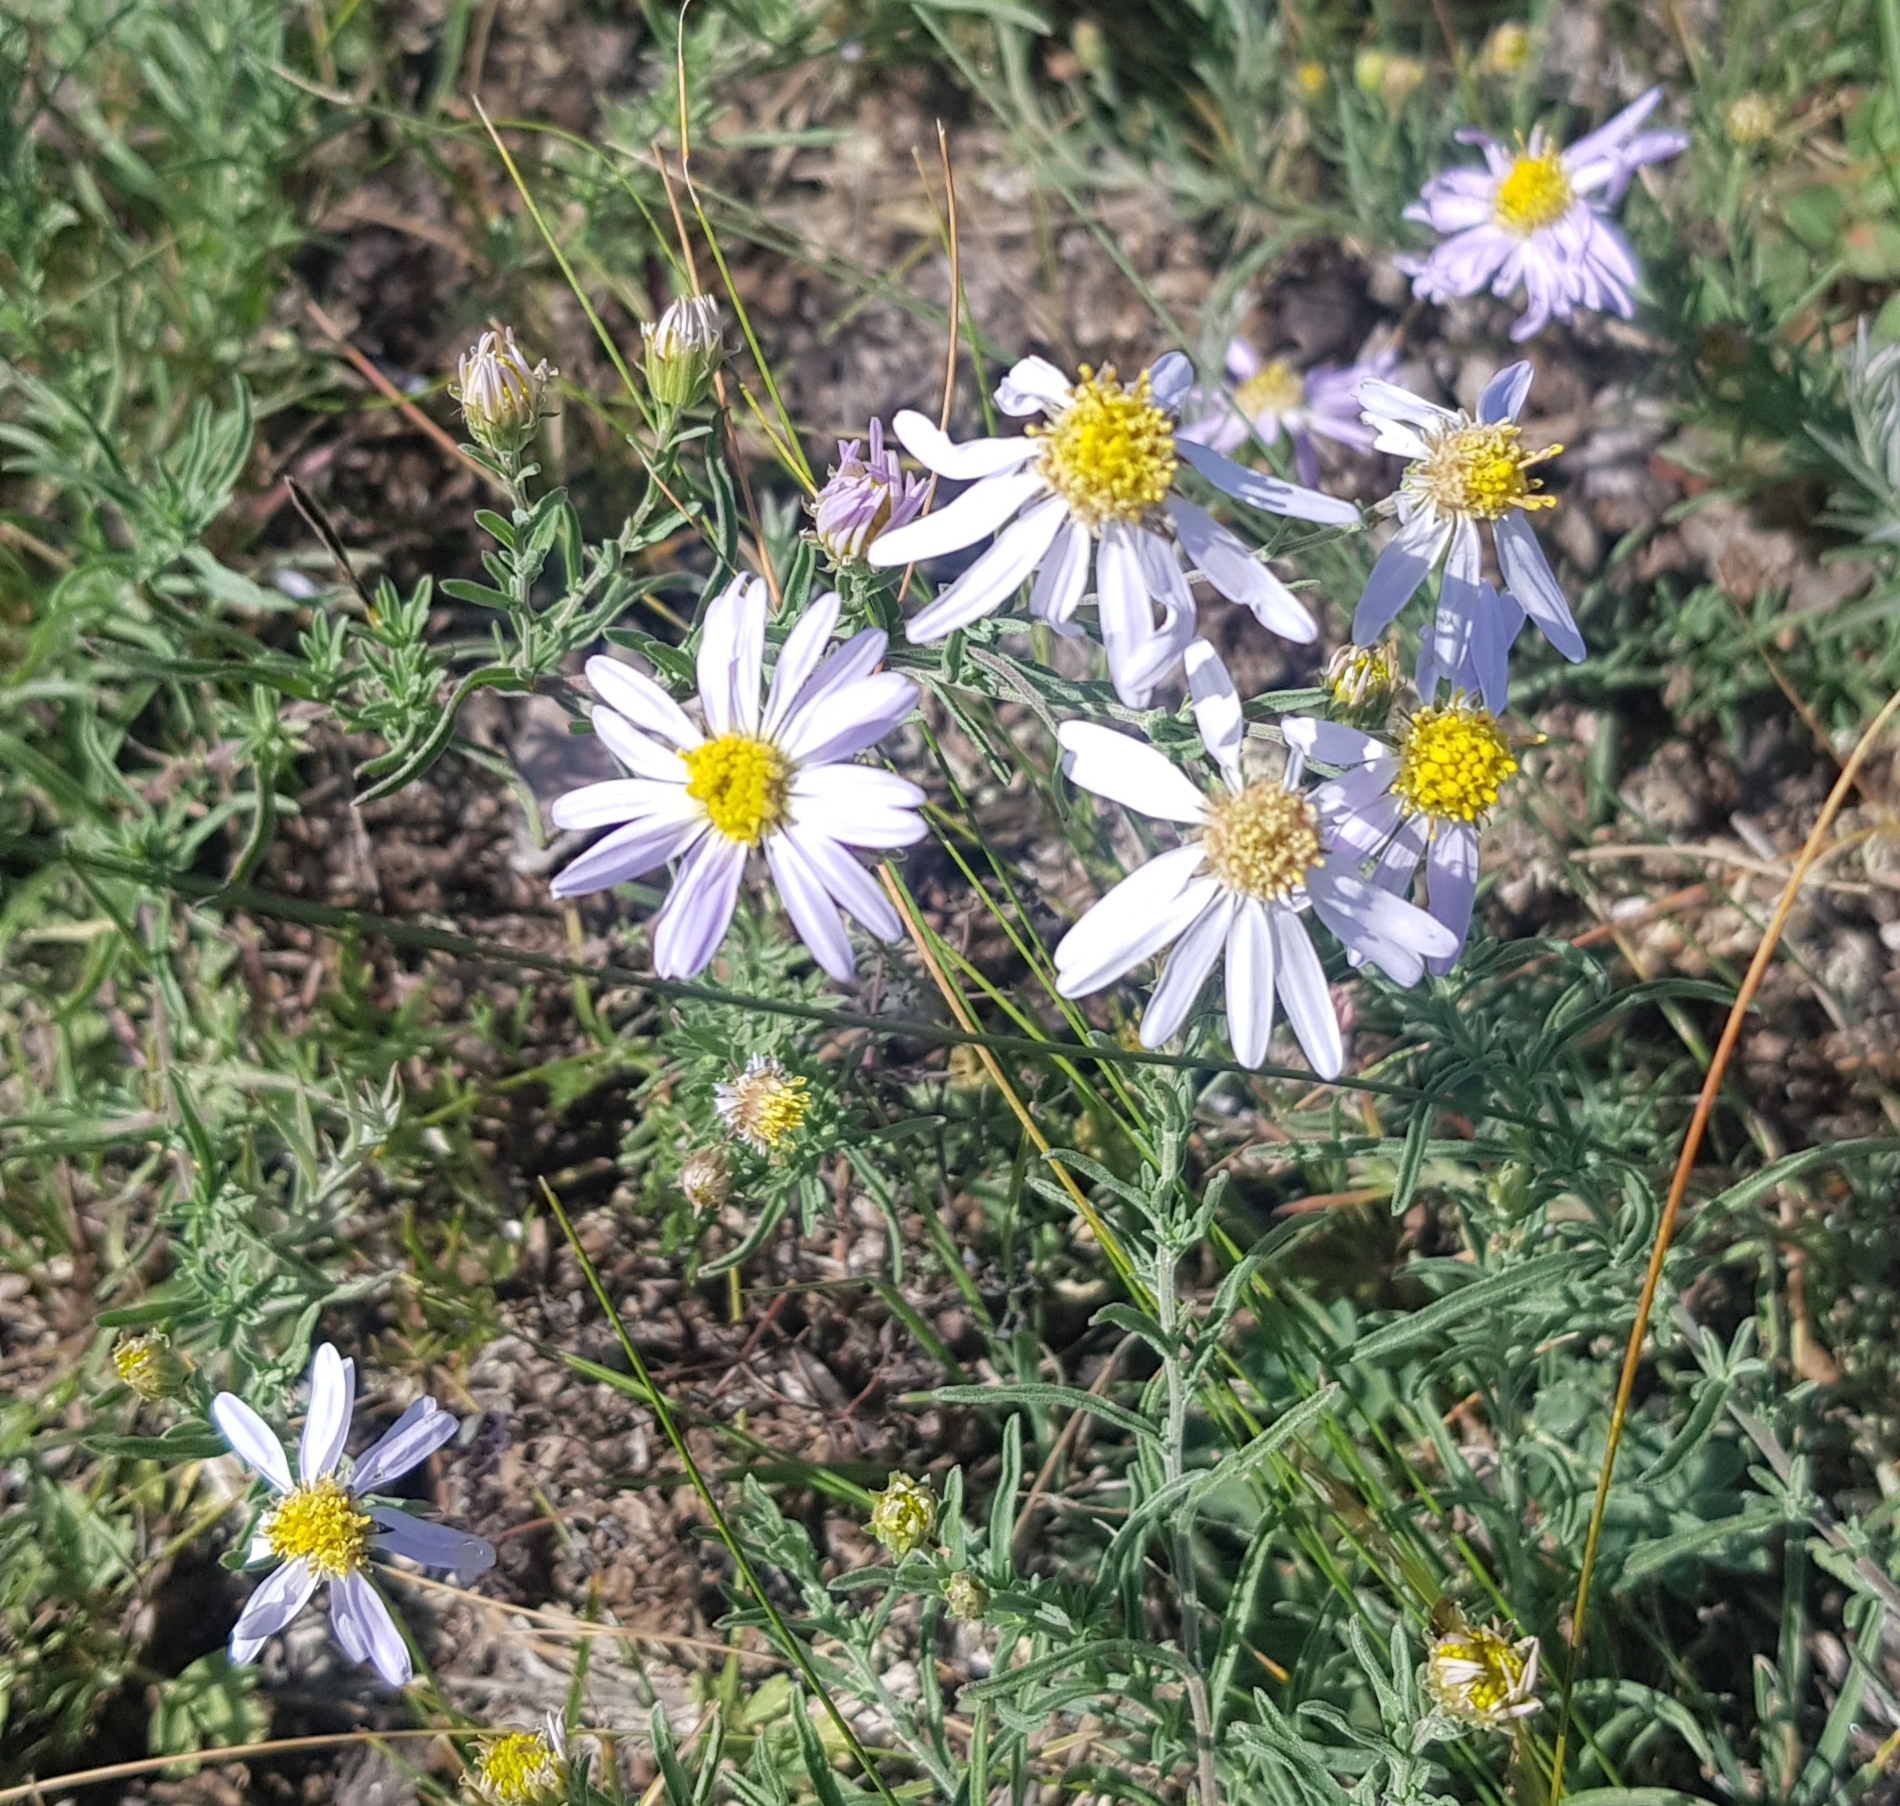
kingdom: Plantae
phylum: Tracheophyta
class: Magnoliopsida
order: Asterales
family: Asteraceae
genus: Heteropappus
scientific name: Heteropappus altaicus
